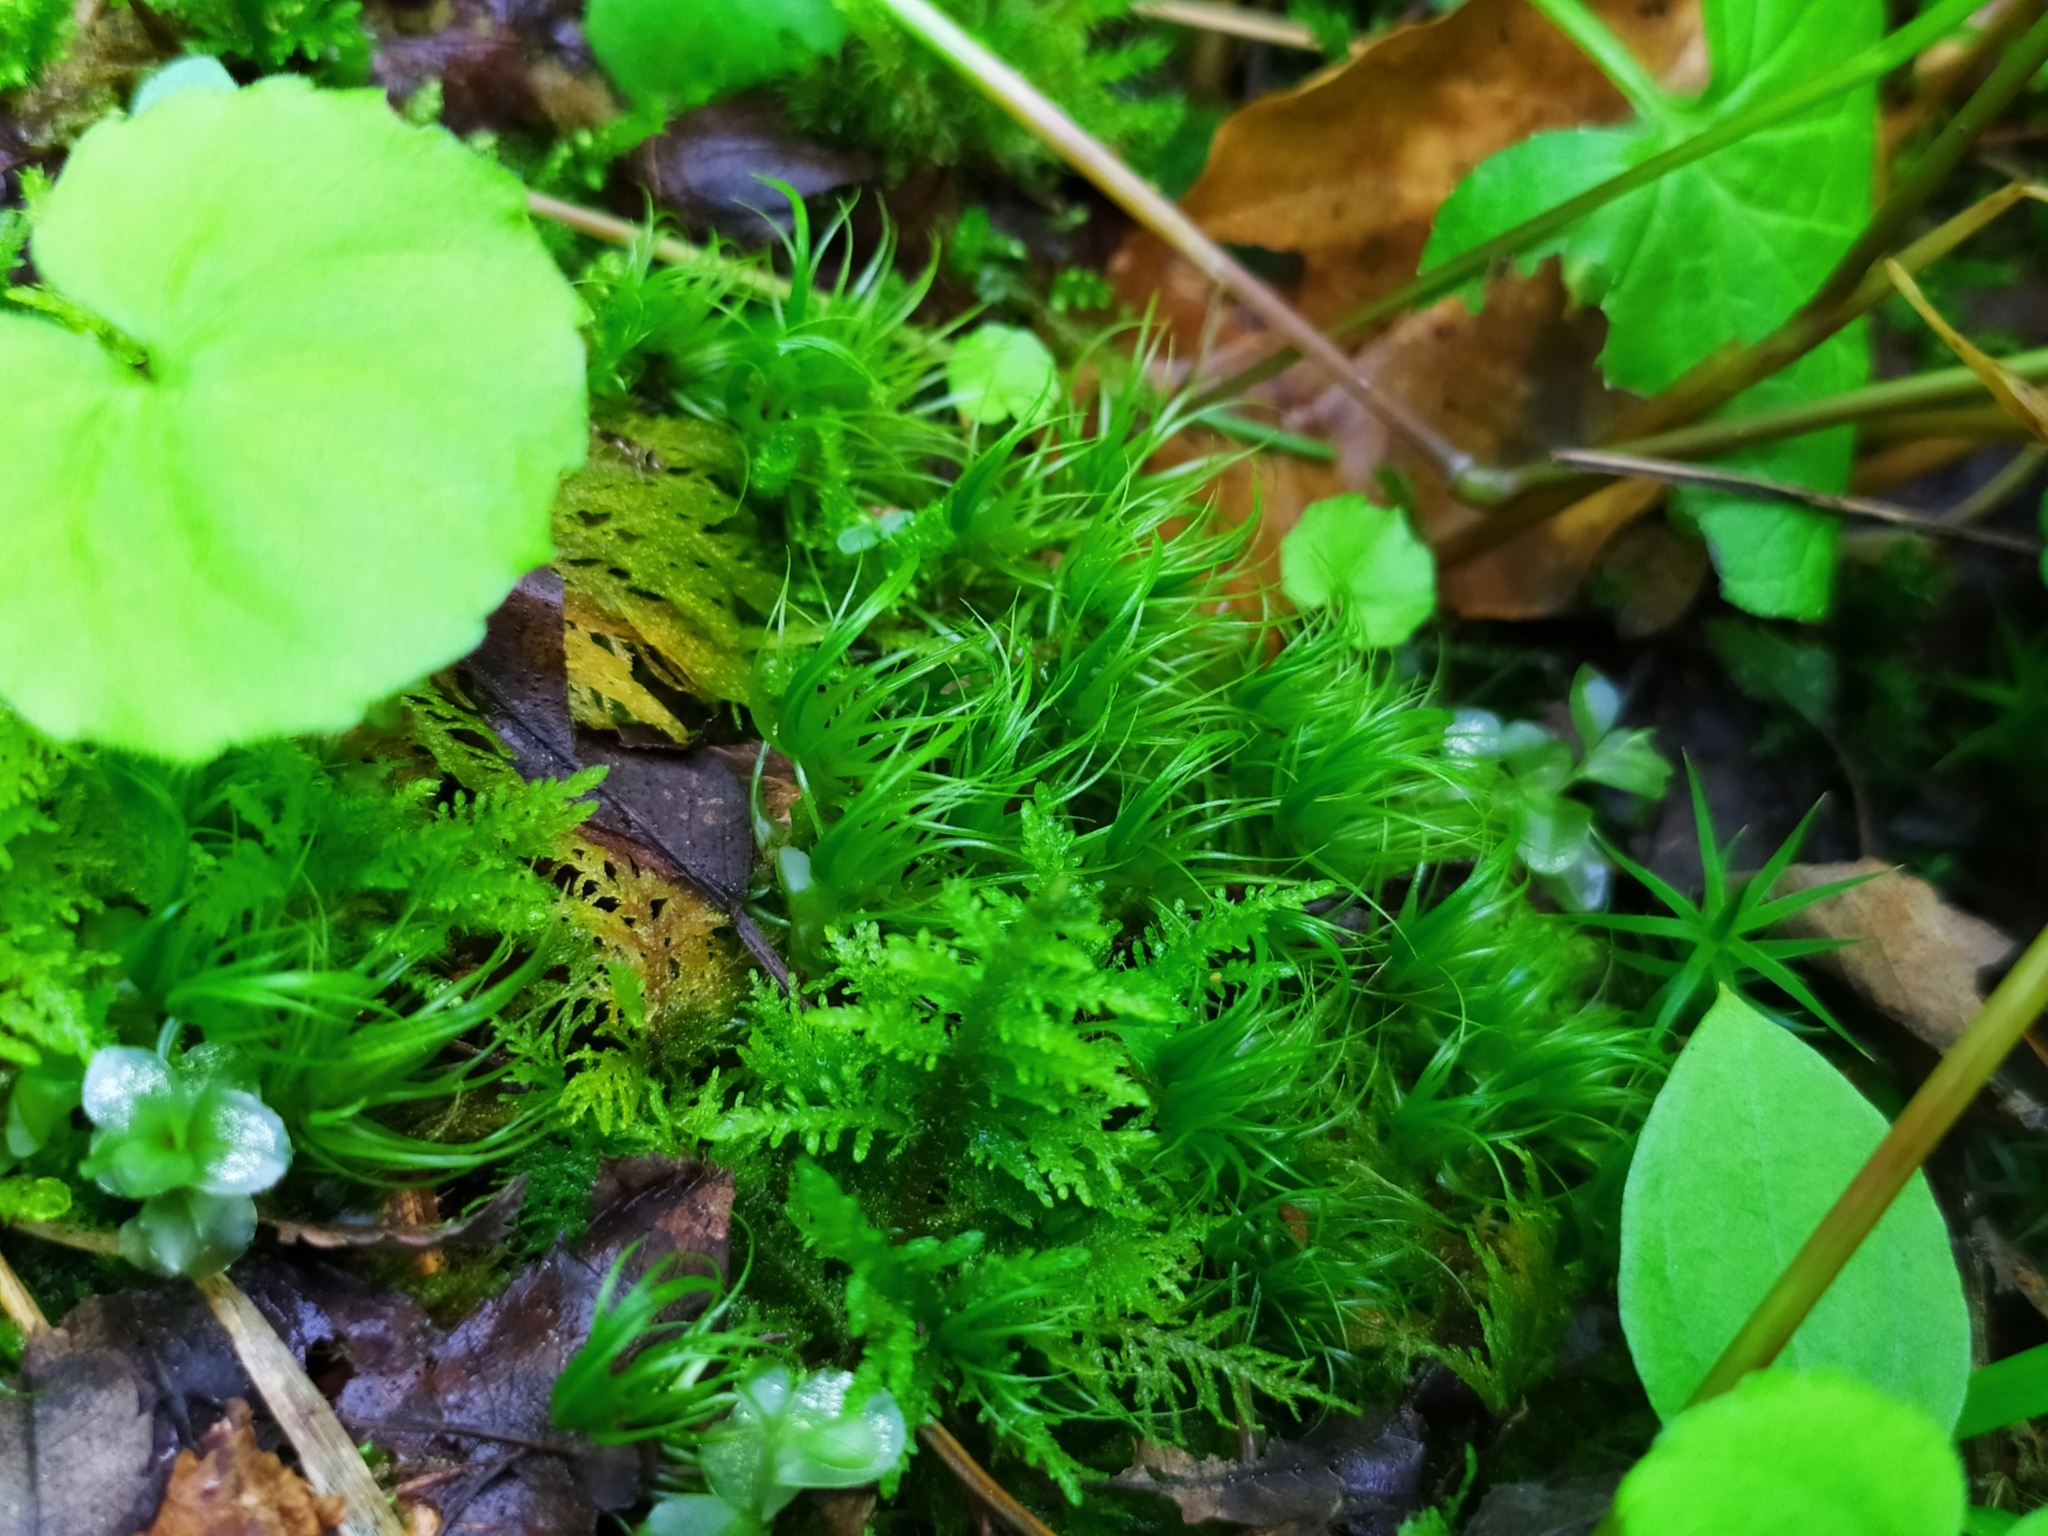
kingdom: Plantae
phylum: Bryophyta
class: Bryopsida
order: Dicranales
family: Dicranaceae
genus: Dicranum
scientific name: Dicranum scoparium
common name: Broom fork-moss
